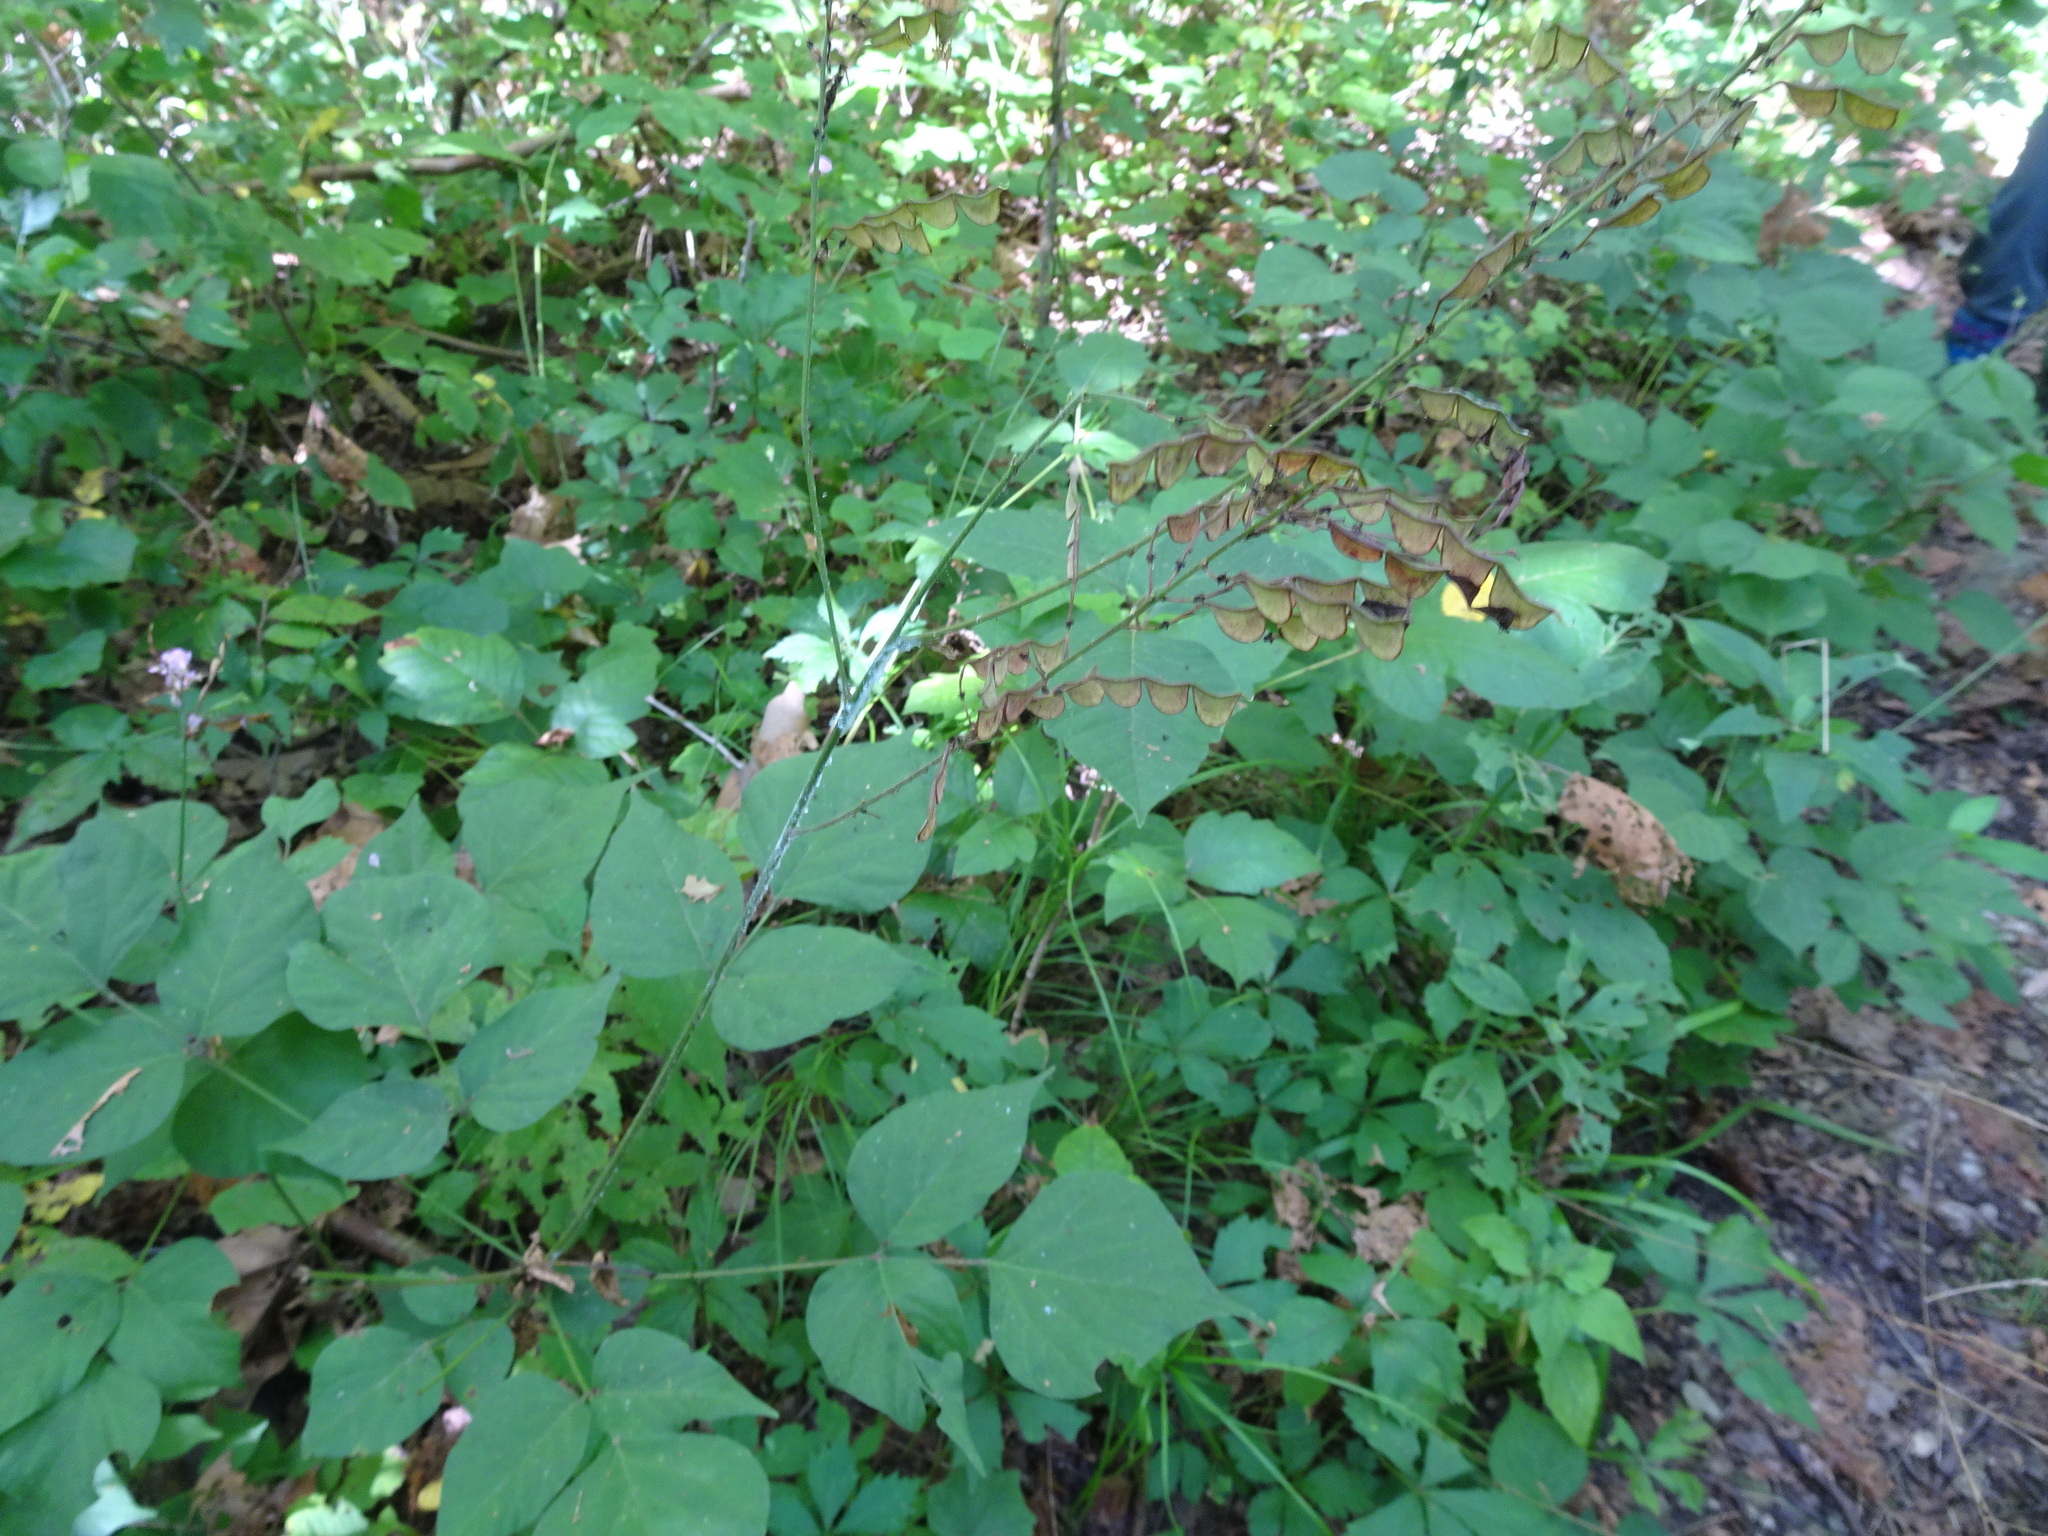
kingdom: Plantae
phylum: Tracheophyta
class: Magnoliopsida
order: Fabales
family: Fabaceae
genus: Hylodesmum
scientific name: Hylodesmum glutinosum
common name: Clustered-leaved tick-trefoil
